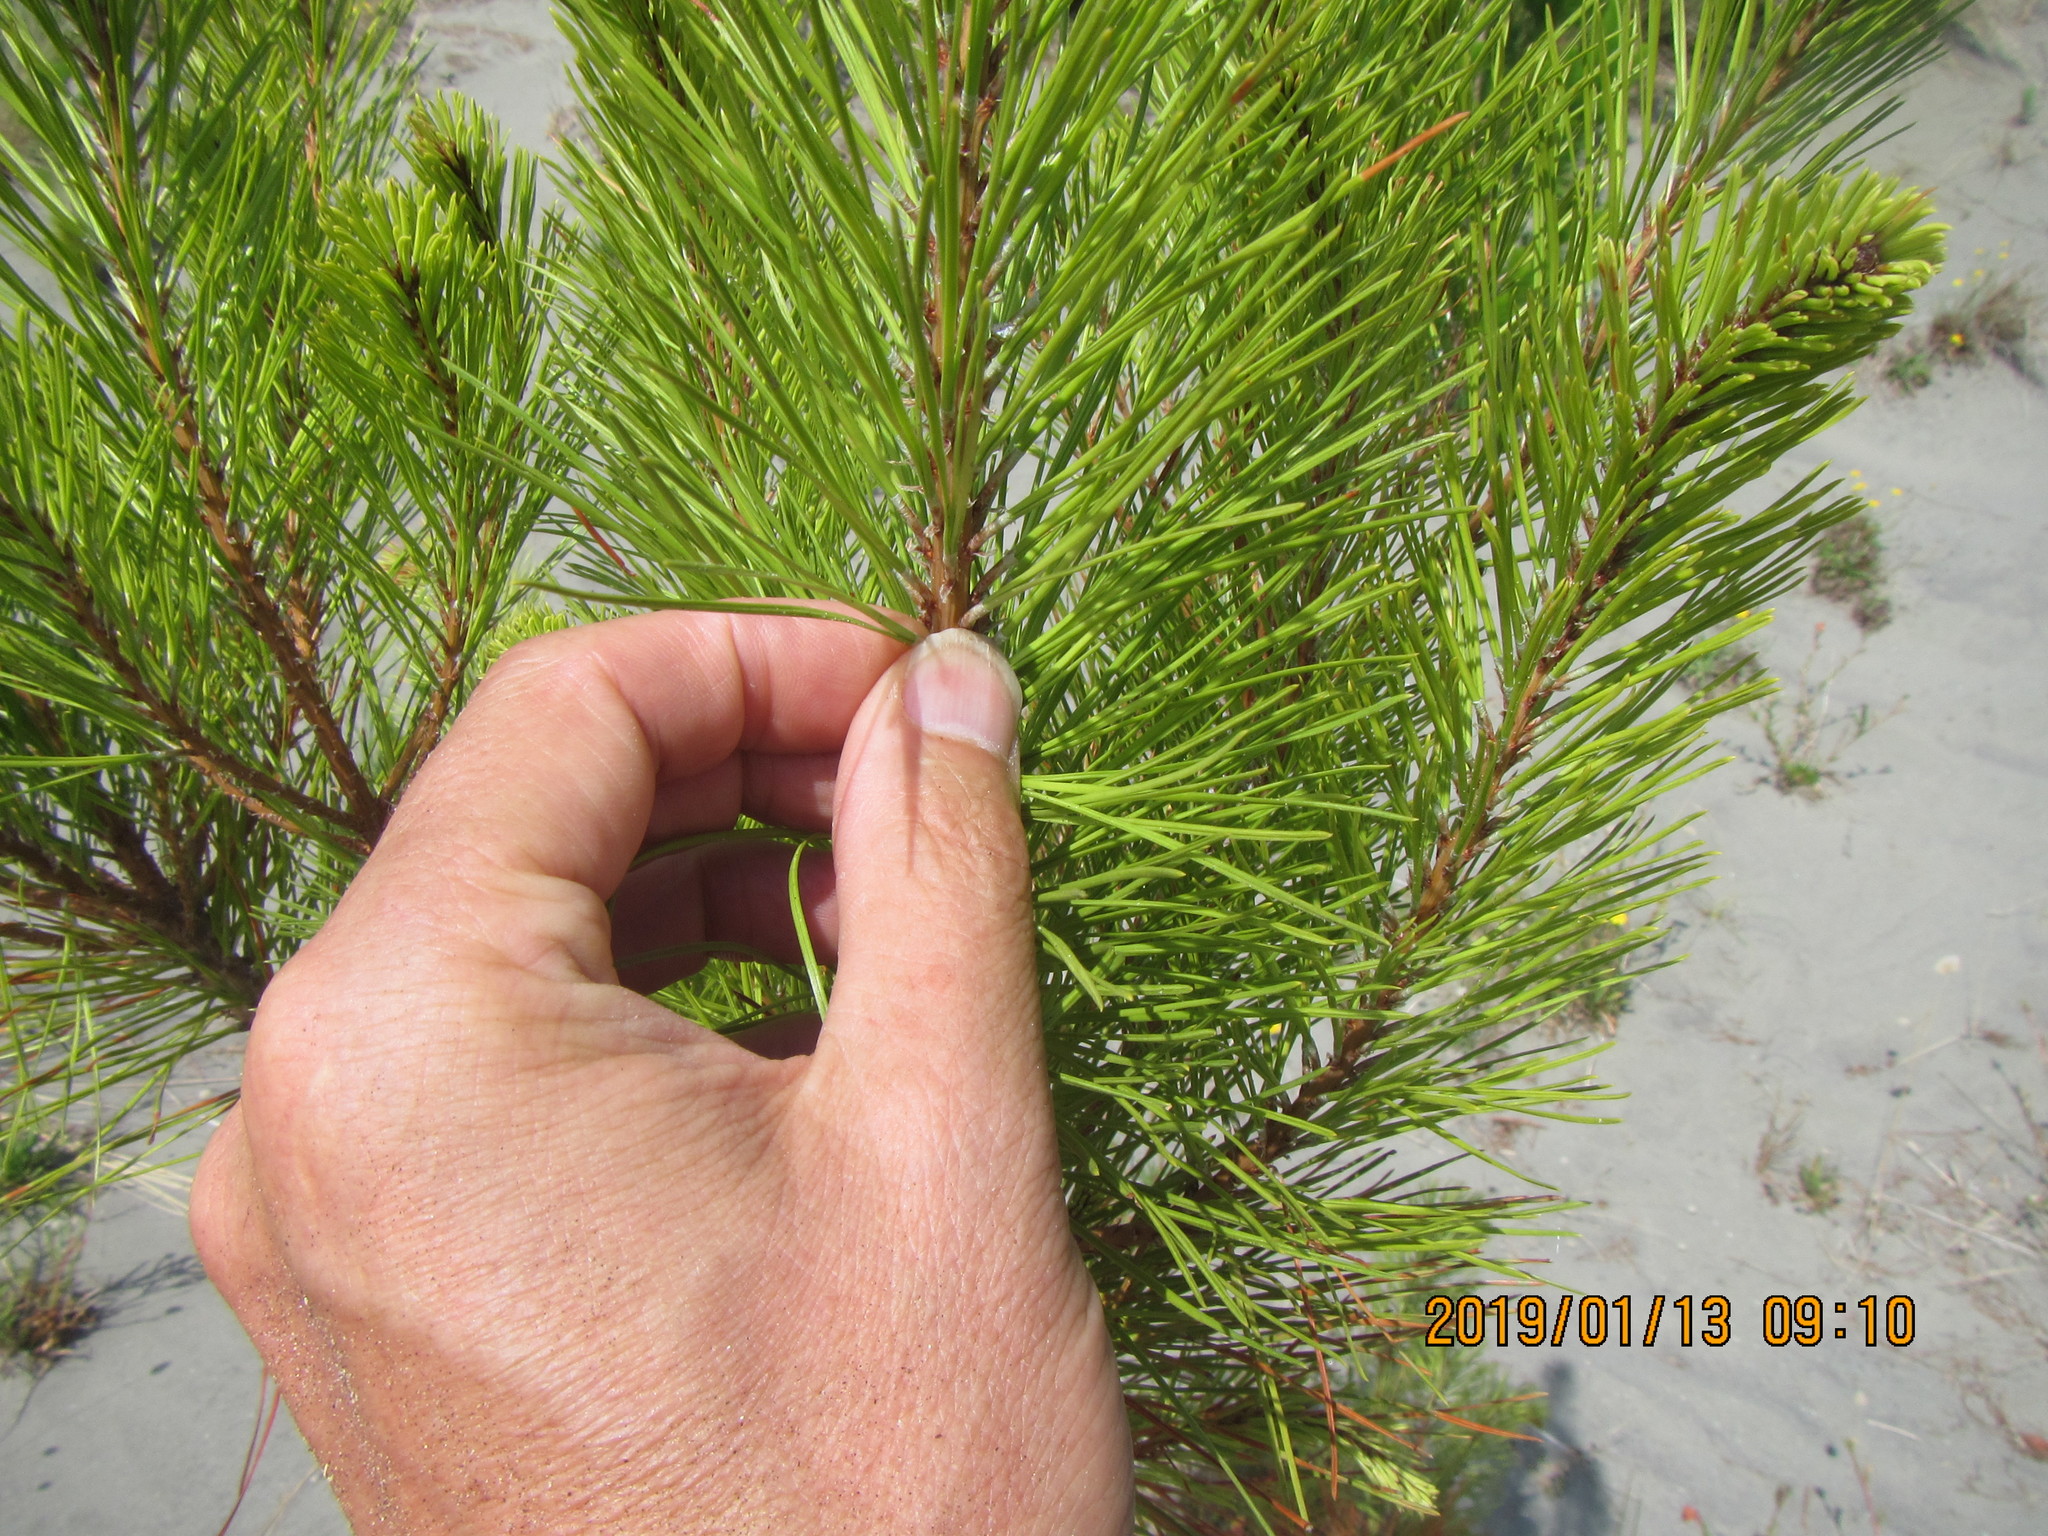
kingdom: Plantae
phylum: Tracheophyta
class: Pinopsida
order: Pinales
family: Pinaceae
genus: Pinus
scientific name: Pinus radiata
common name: Monterey pine
